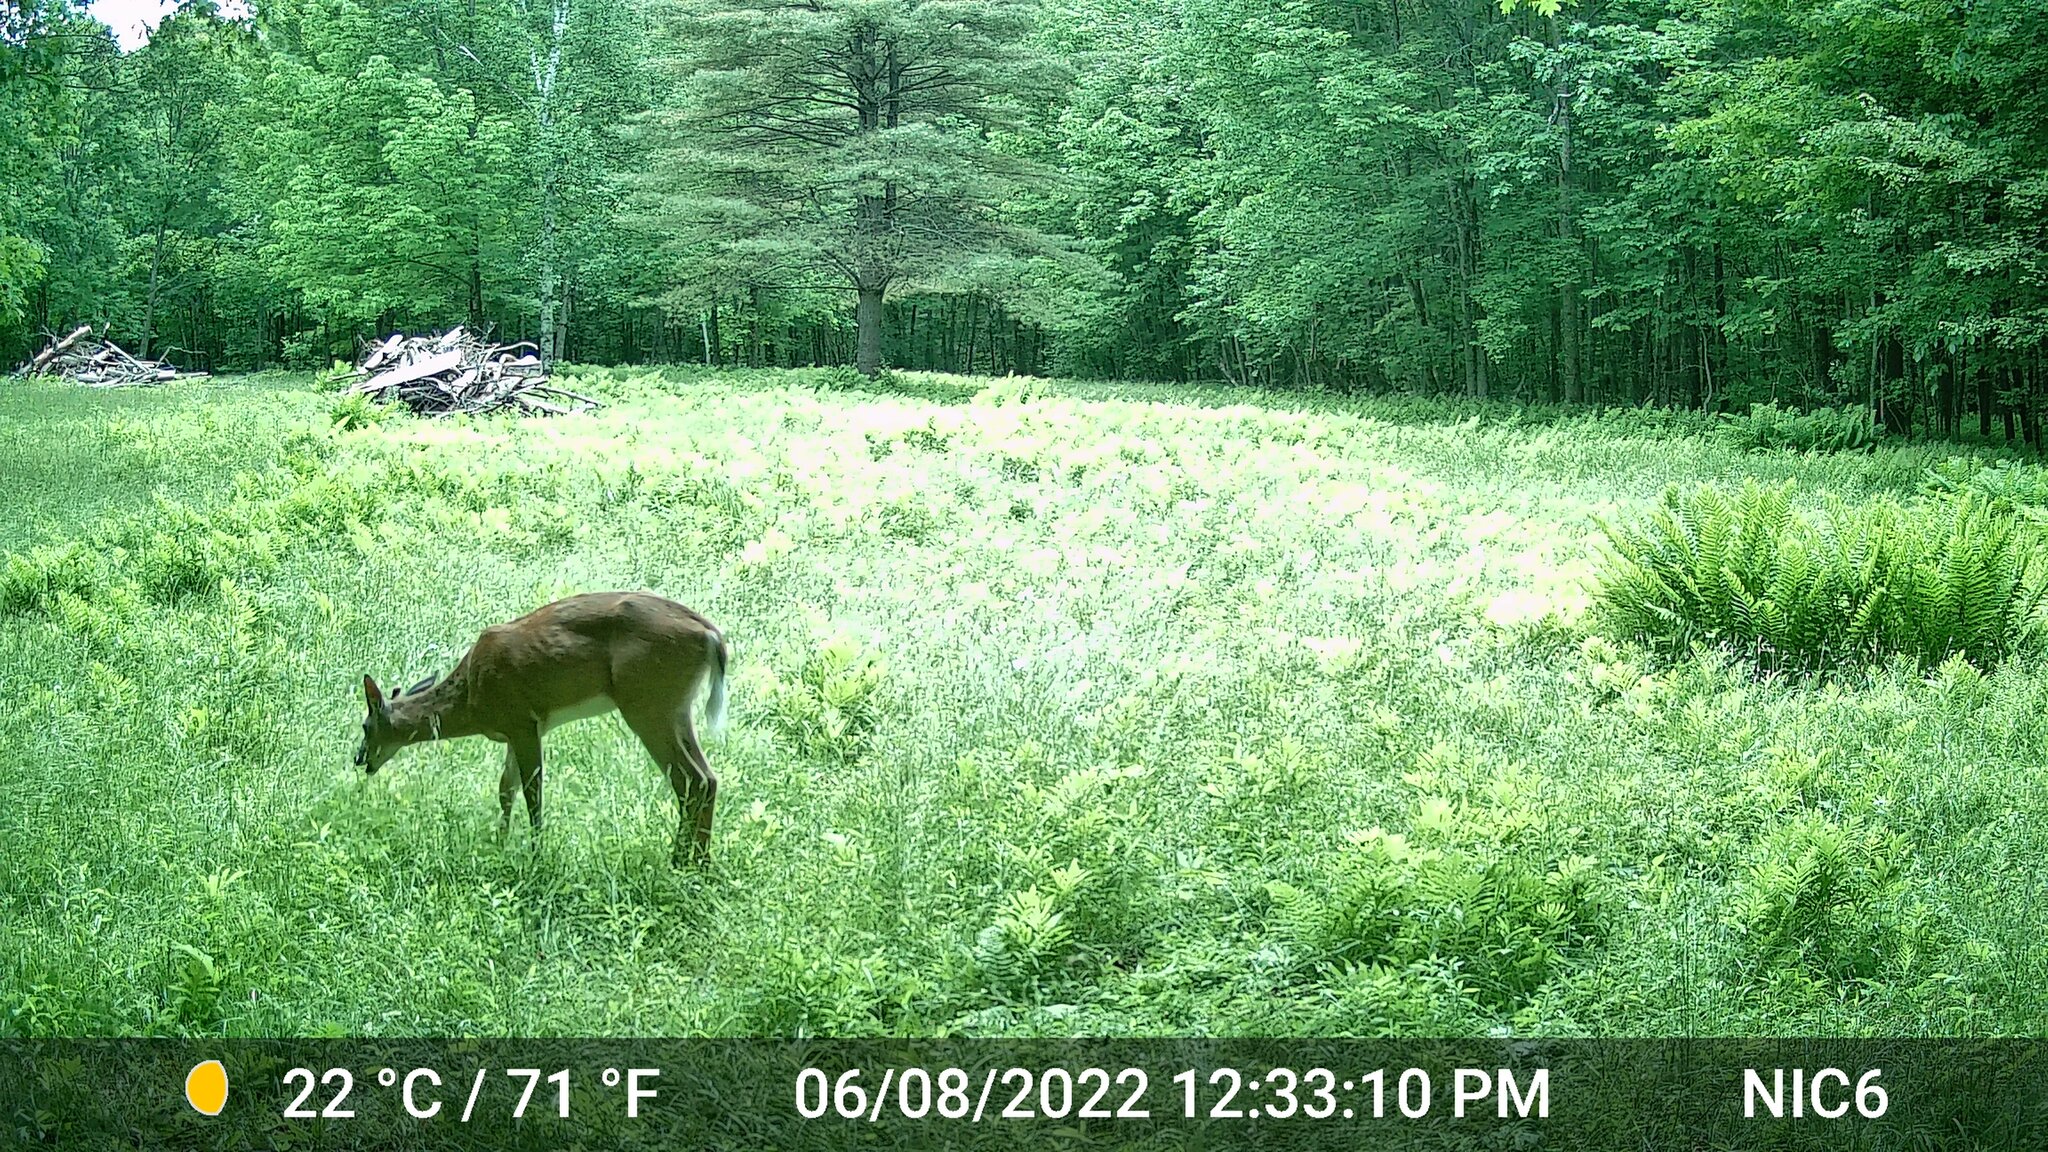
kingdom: Animalia
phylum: Chordata
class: Mammalia
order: Artiodactyla
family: Cervidae
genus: Odocoileus
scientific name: Odocoileus virginianus
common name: White-tailed deer
